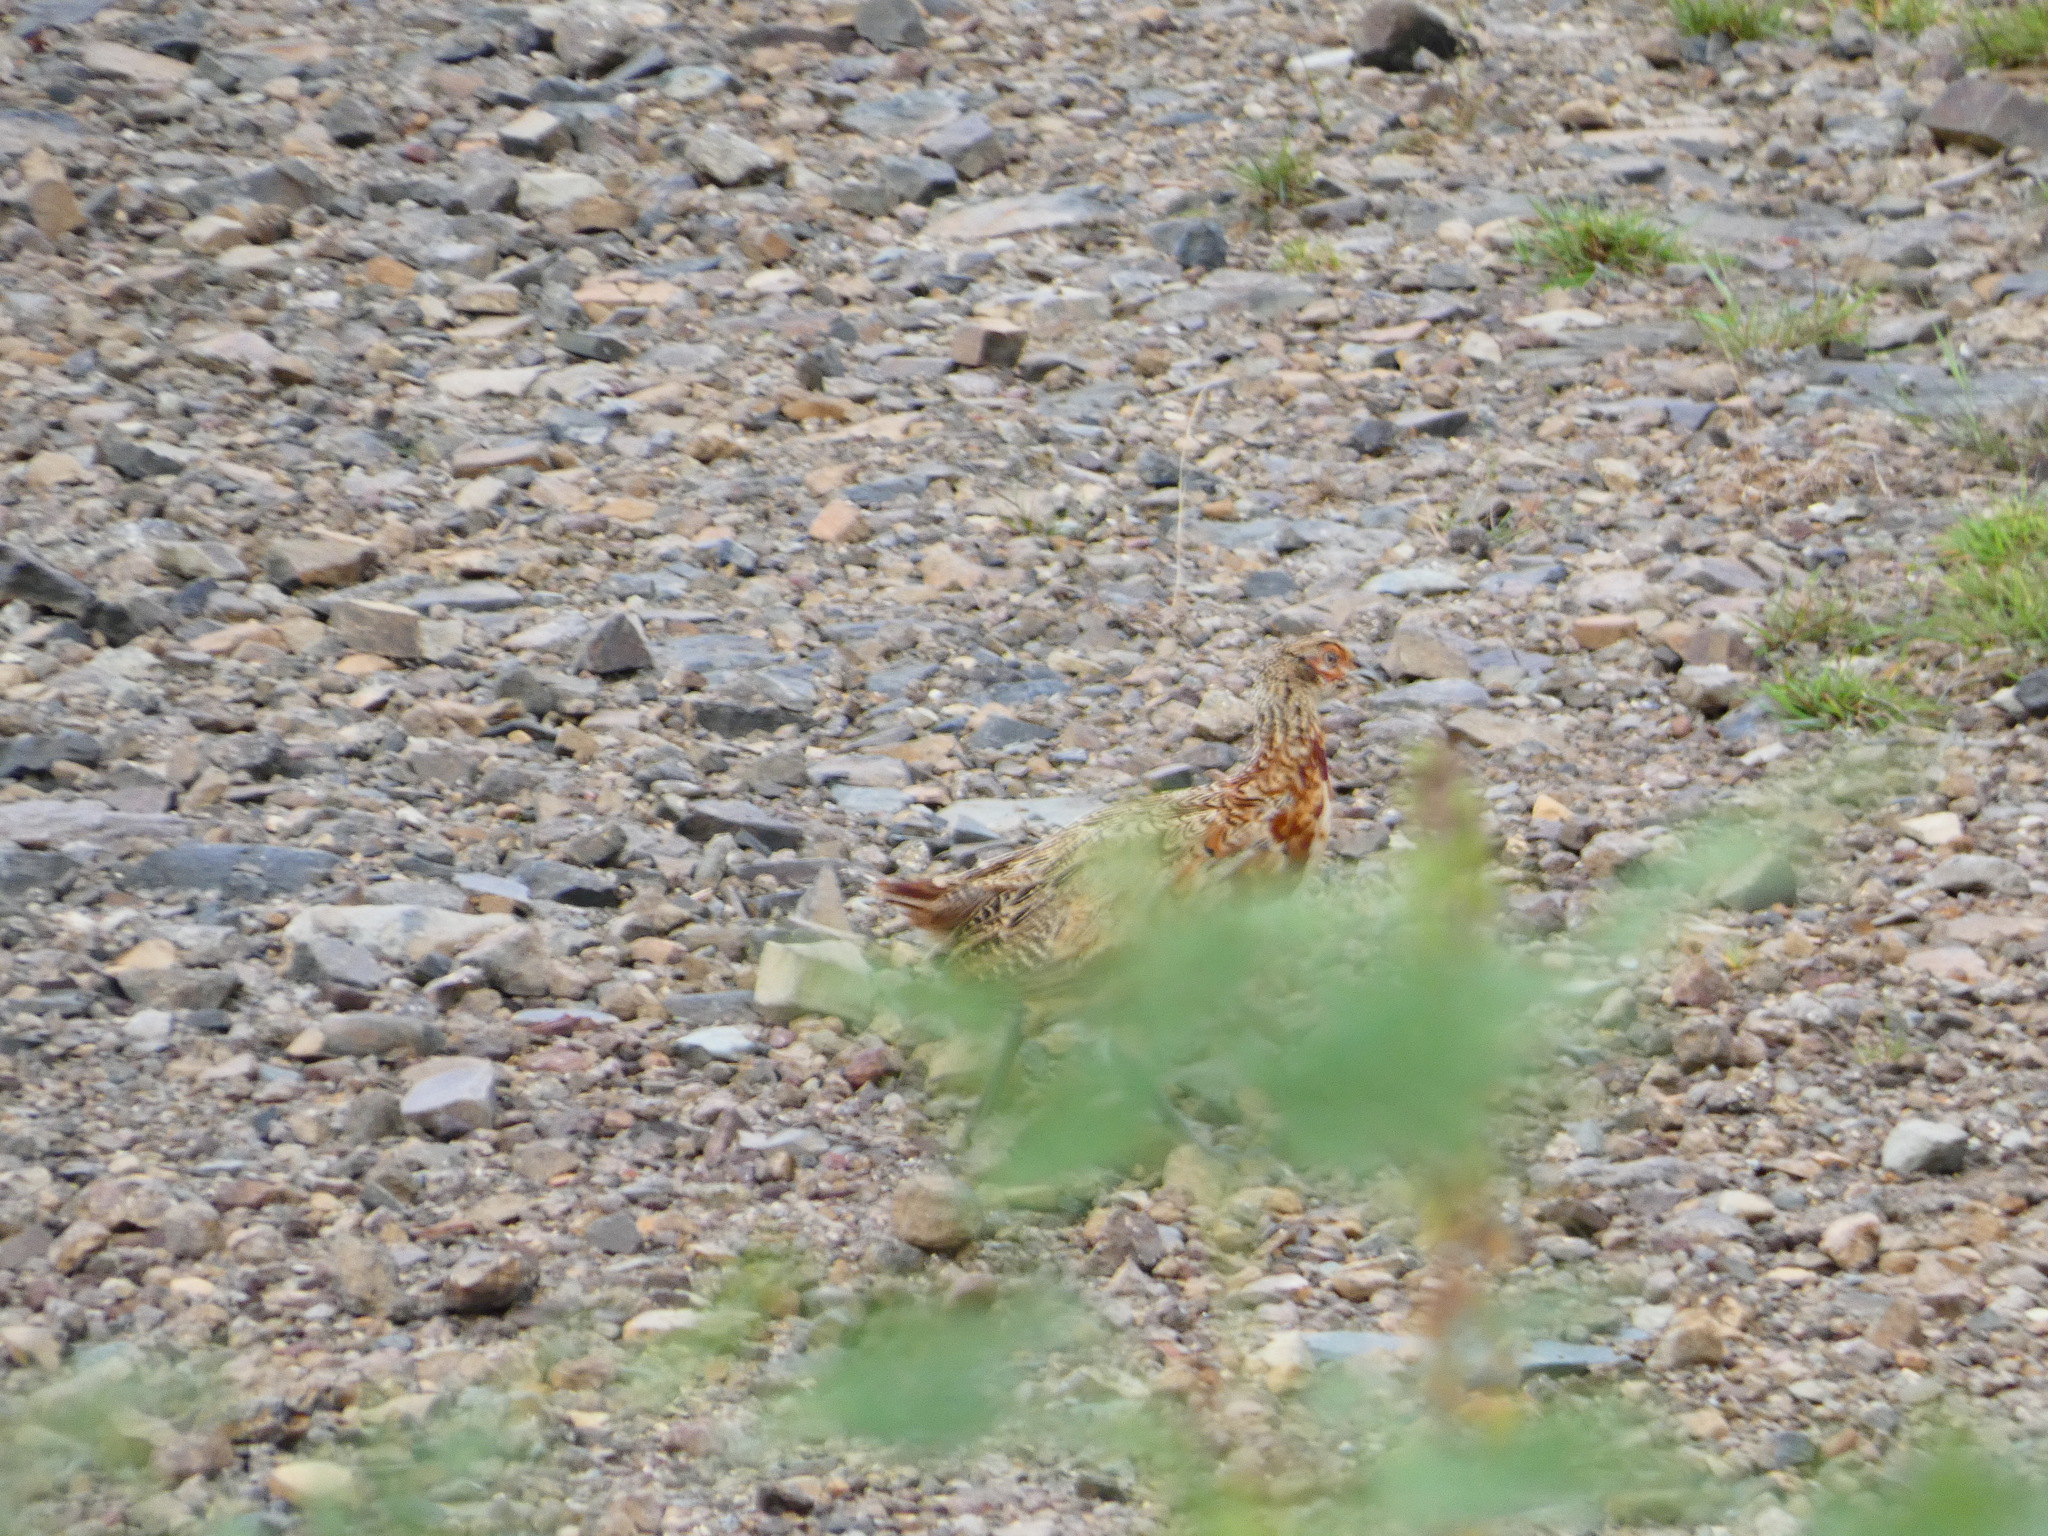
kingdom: Animalia
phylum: Chordata
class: Aves
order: Galliformes
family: Phasianidae
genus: Phasianus
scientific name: Phasianus colchicus
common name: Common pheasant
